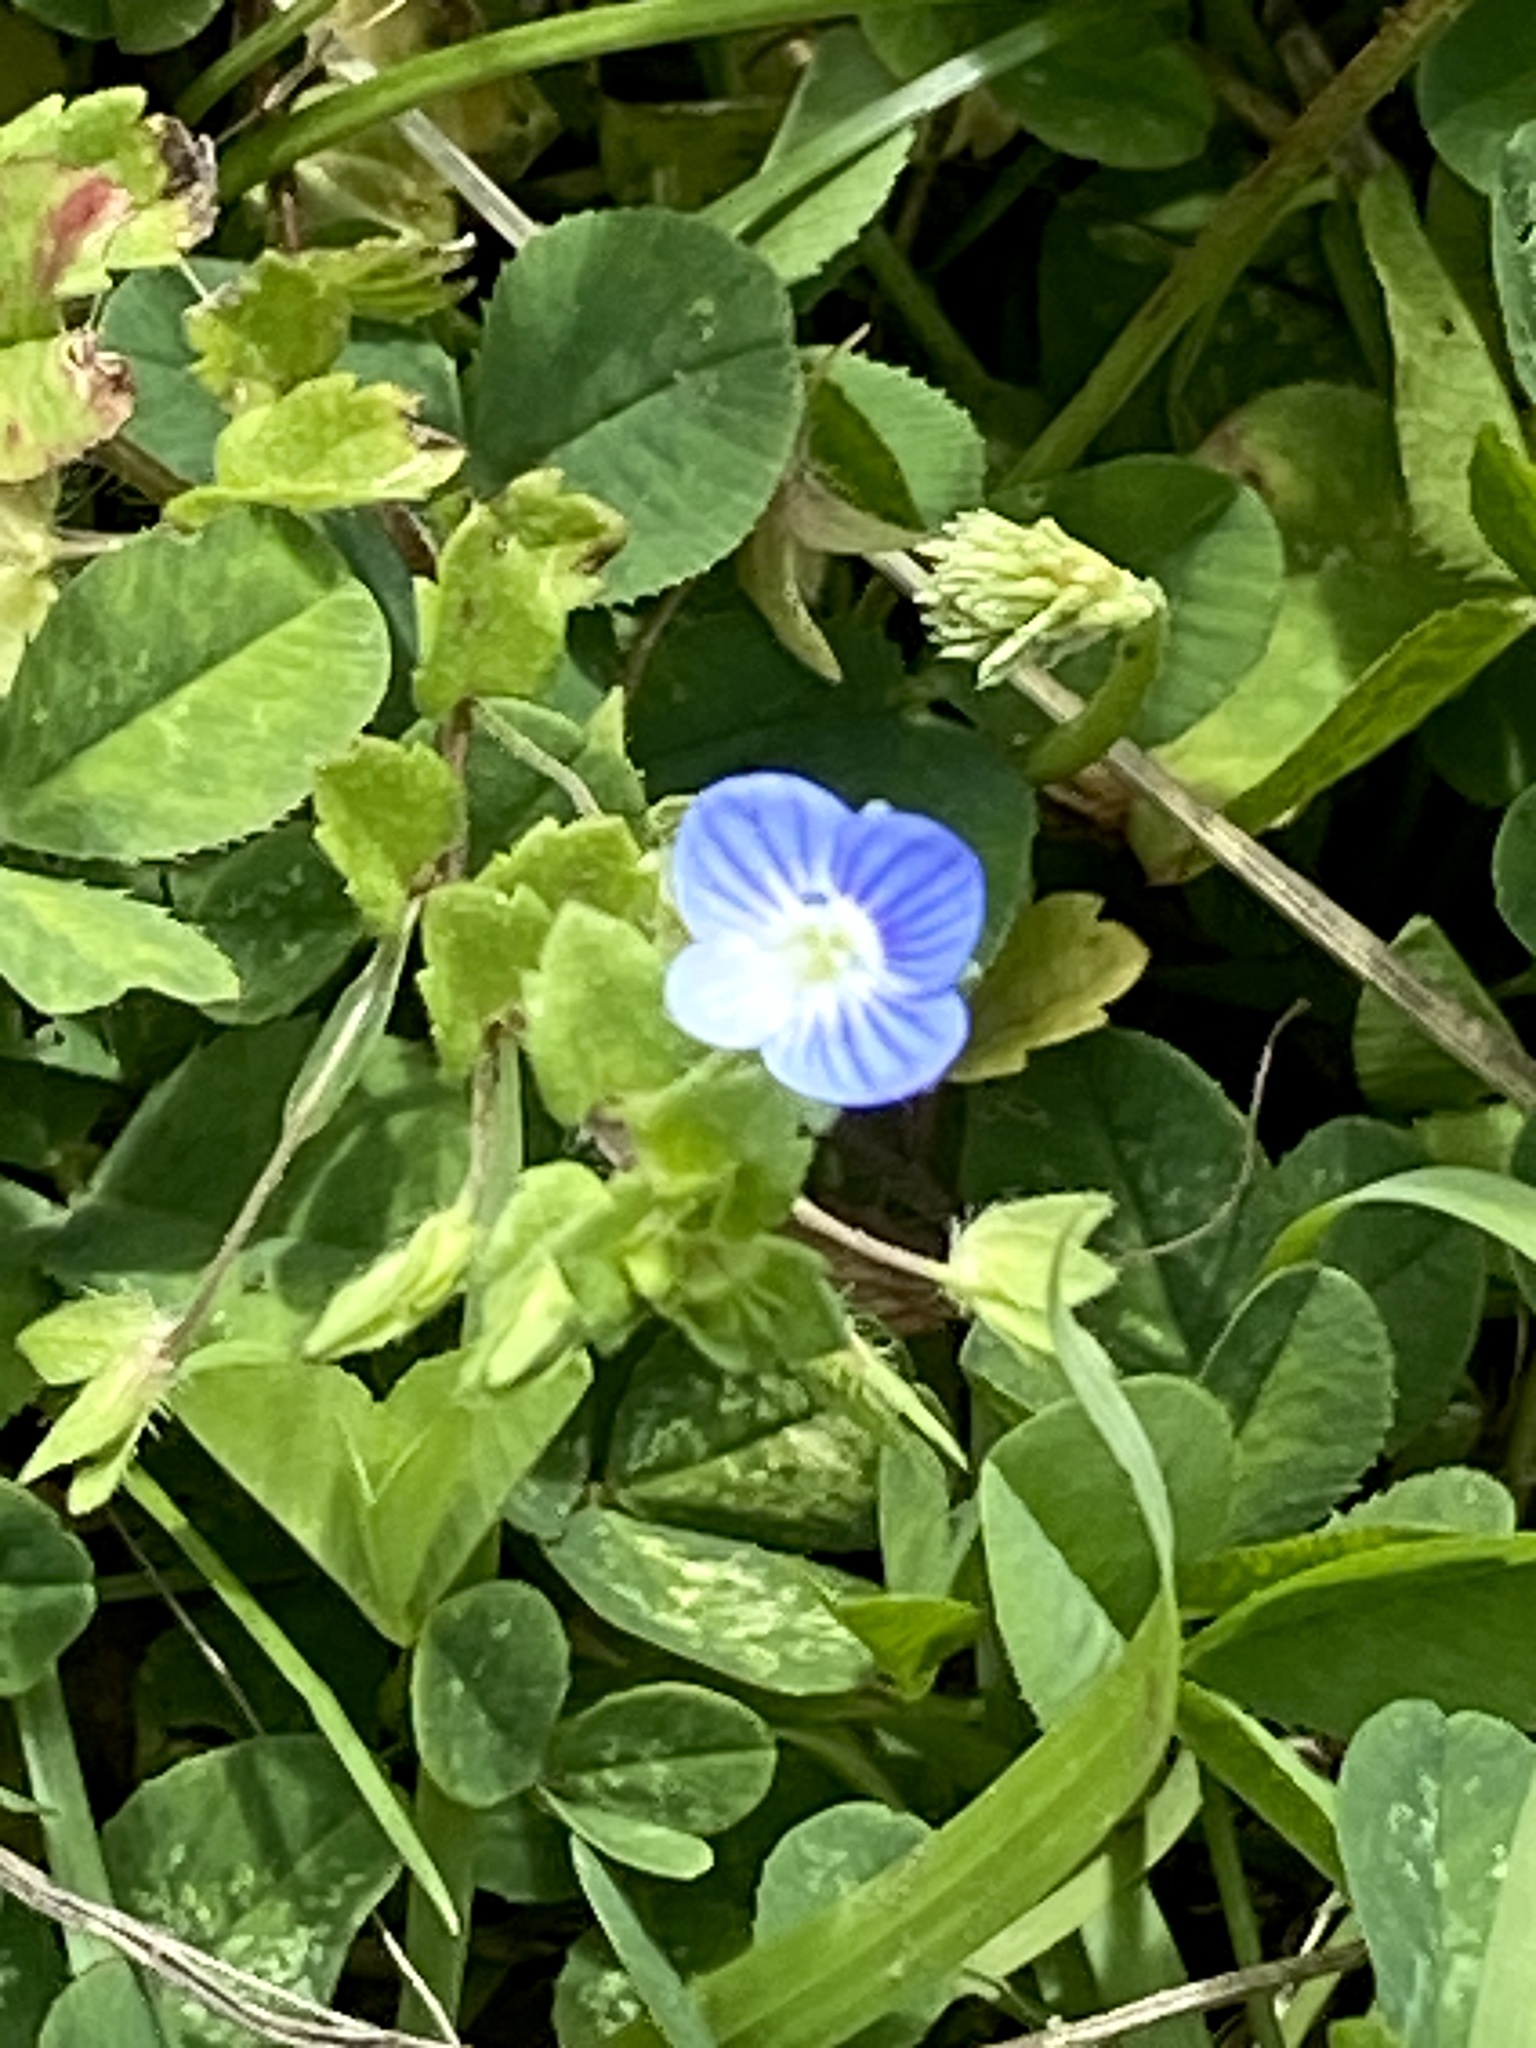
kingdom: Plantae
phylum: Tracheophyta
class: Magnoliopsida
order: Lamiales
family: Plantaginaceae
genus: Veronica
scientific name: Veronica persica
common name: Common field-speedwell
